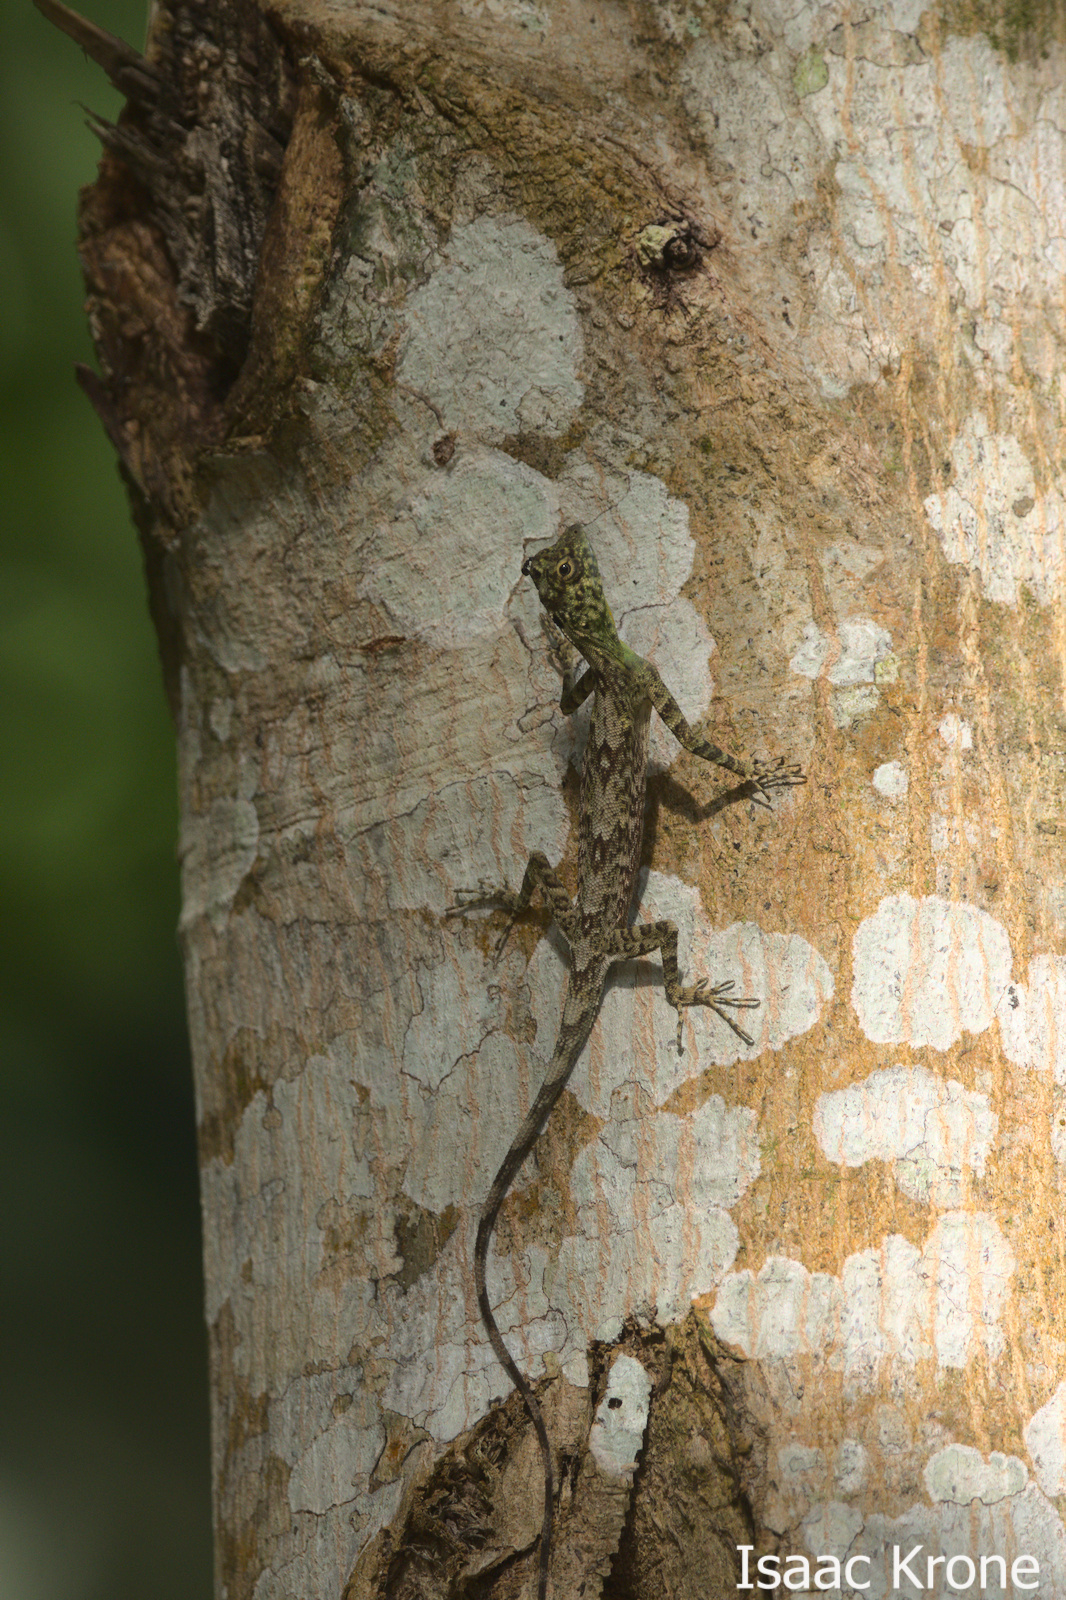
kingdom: Animalia
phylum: Chordata
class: Squamata
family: Agamidae
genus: Draco
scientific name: Draco spilonotus
